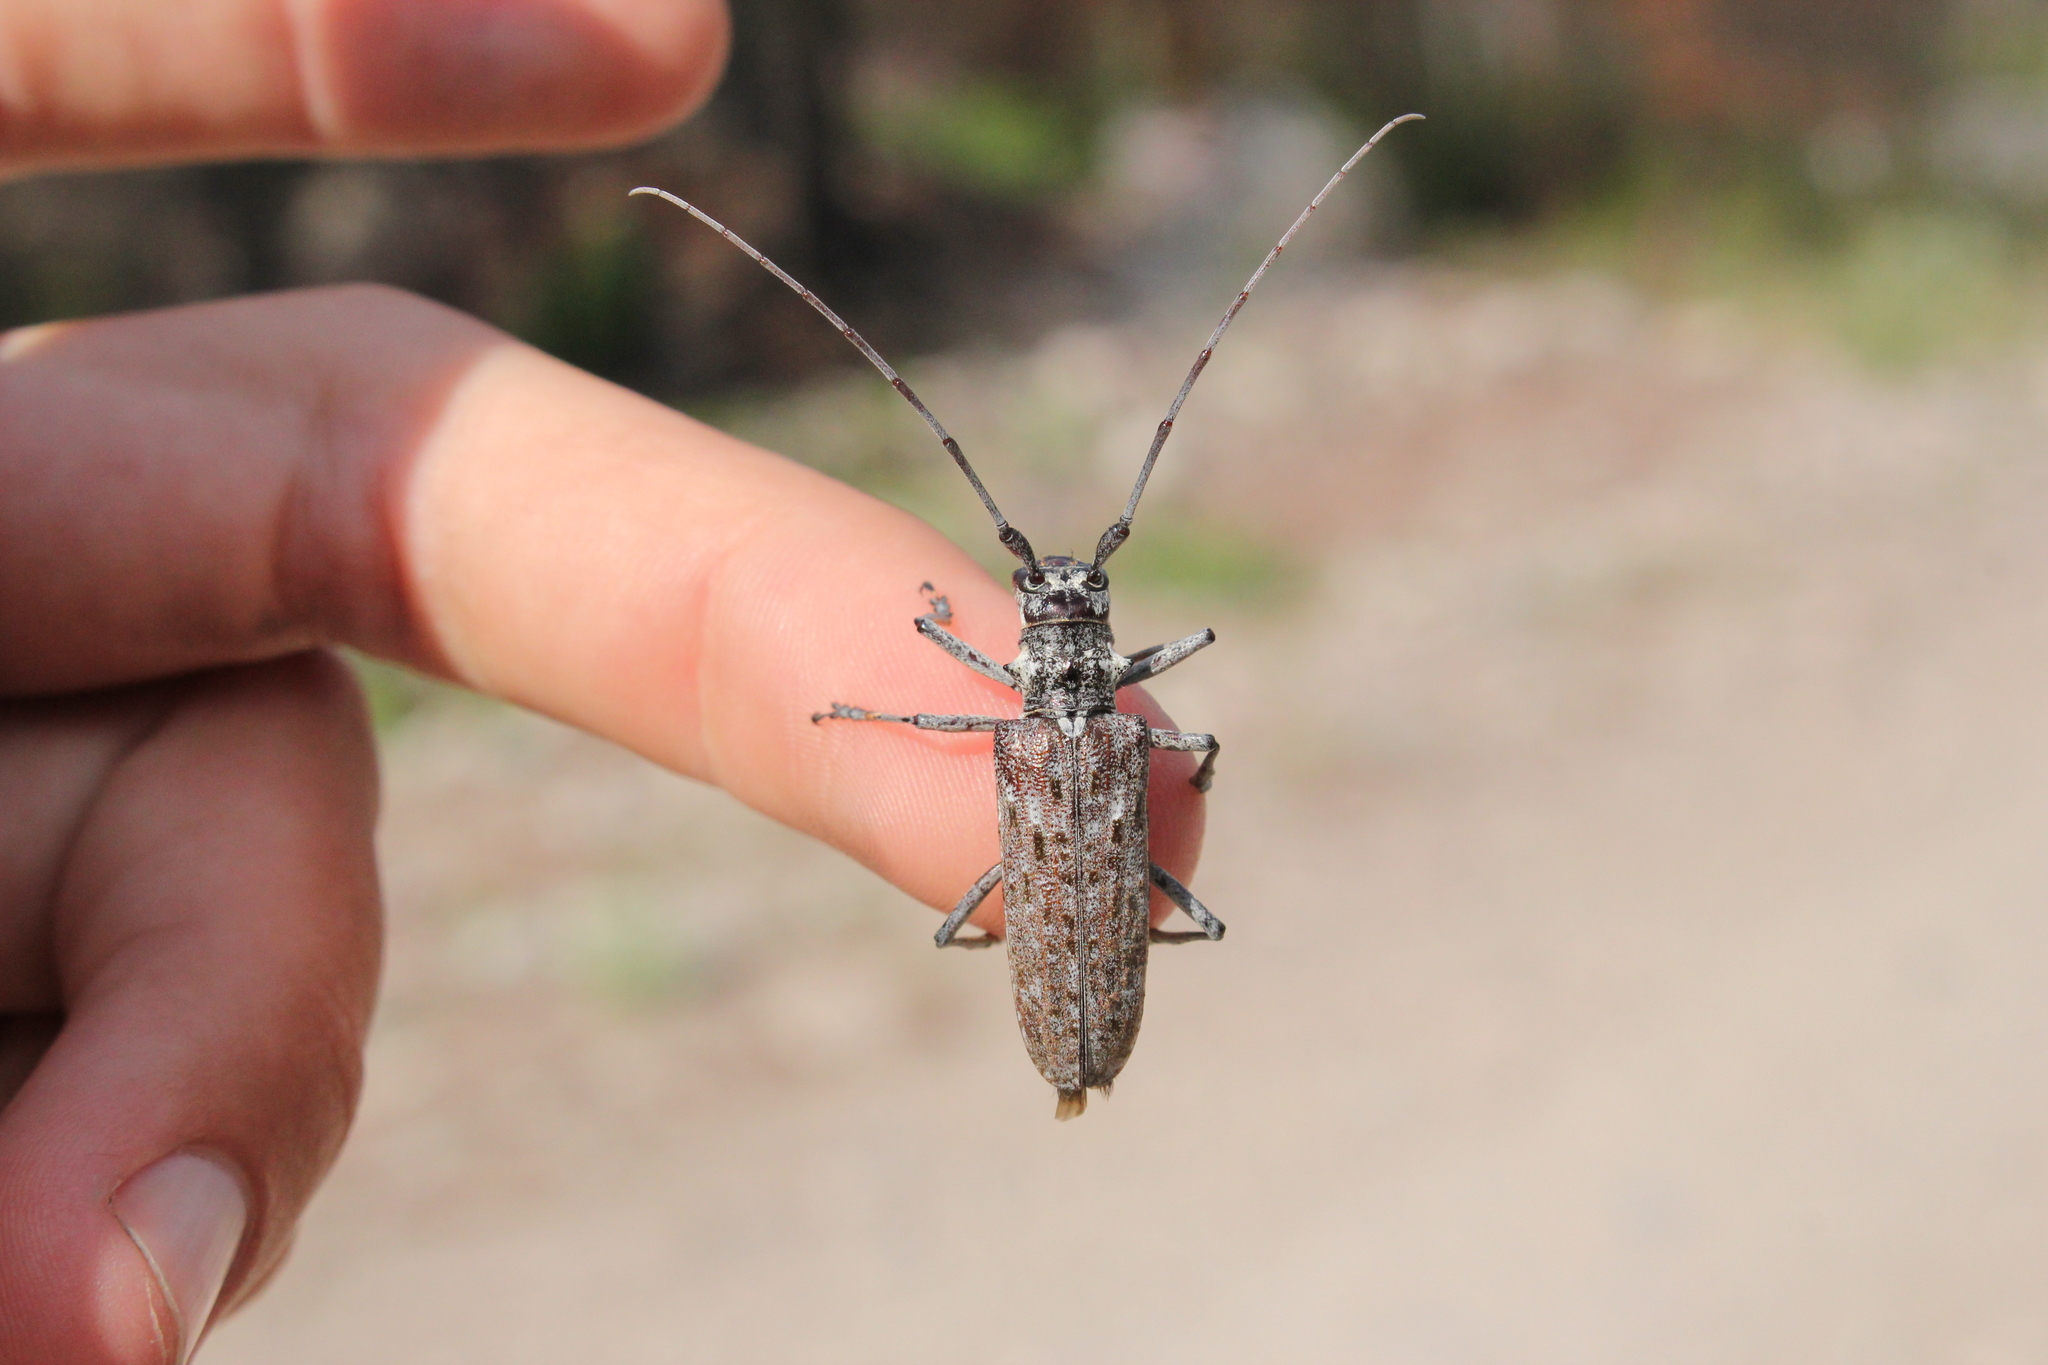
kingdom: Animalia
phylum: Arthropoda
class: Insecta
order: Coleoptera
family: Cerambycidae
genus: Monochamus
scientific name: Monochamus notatus
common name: Northeastern pine sawyer beetle
